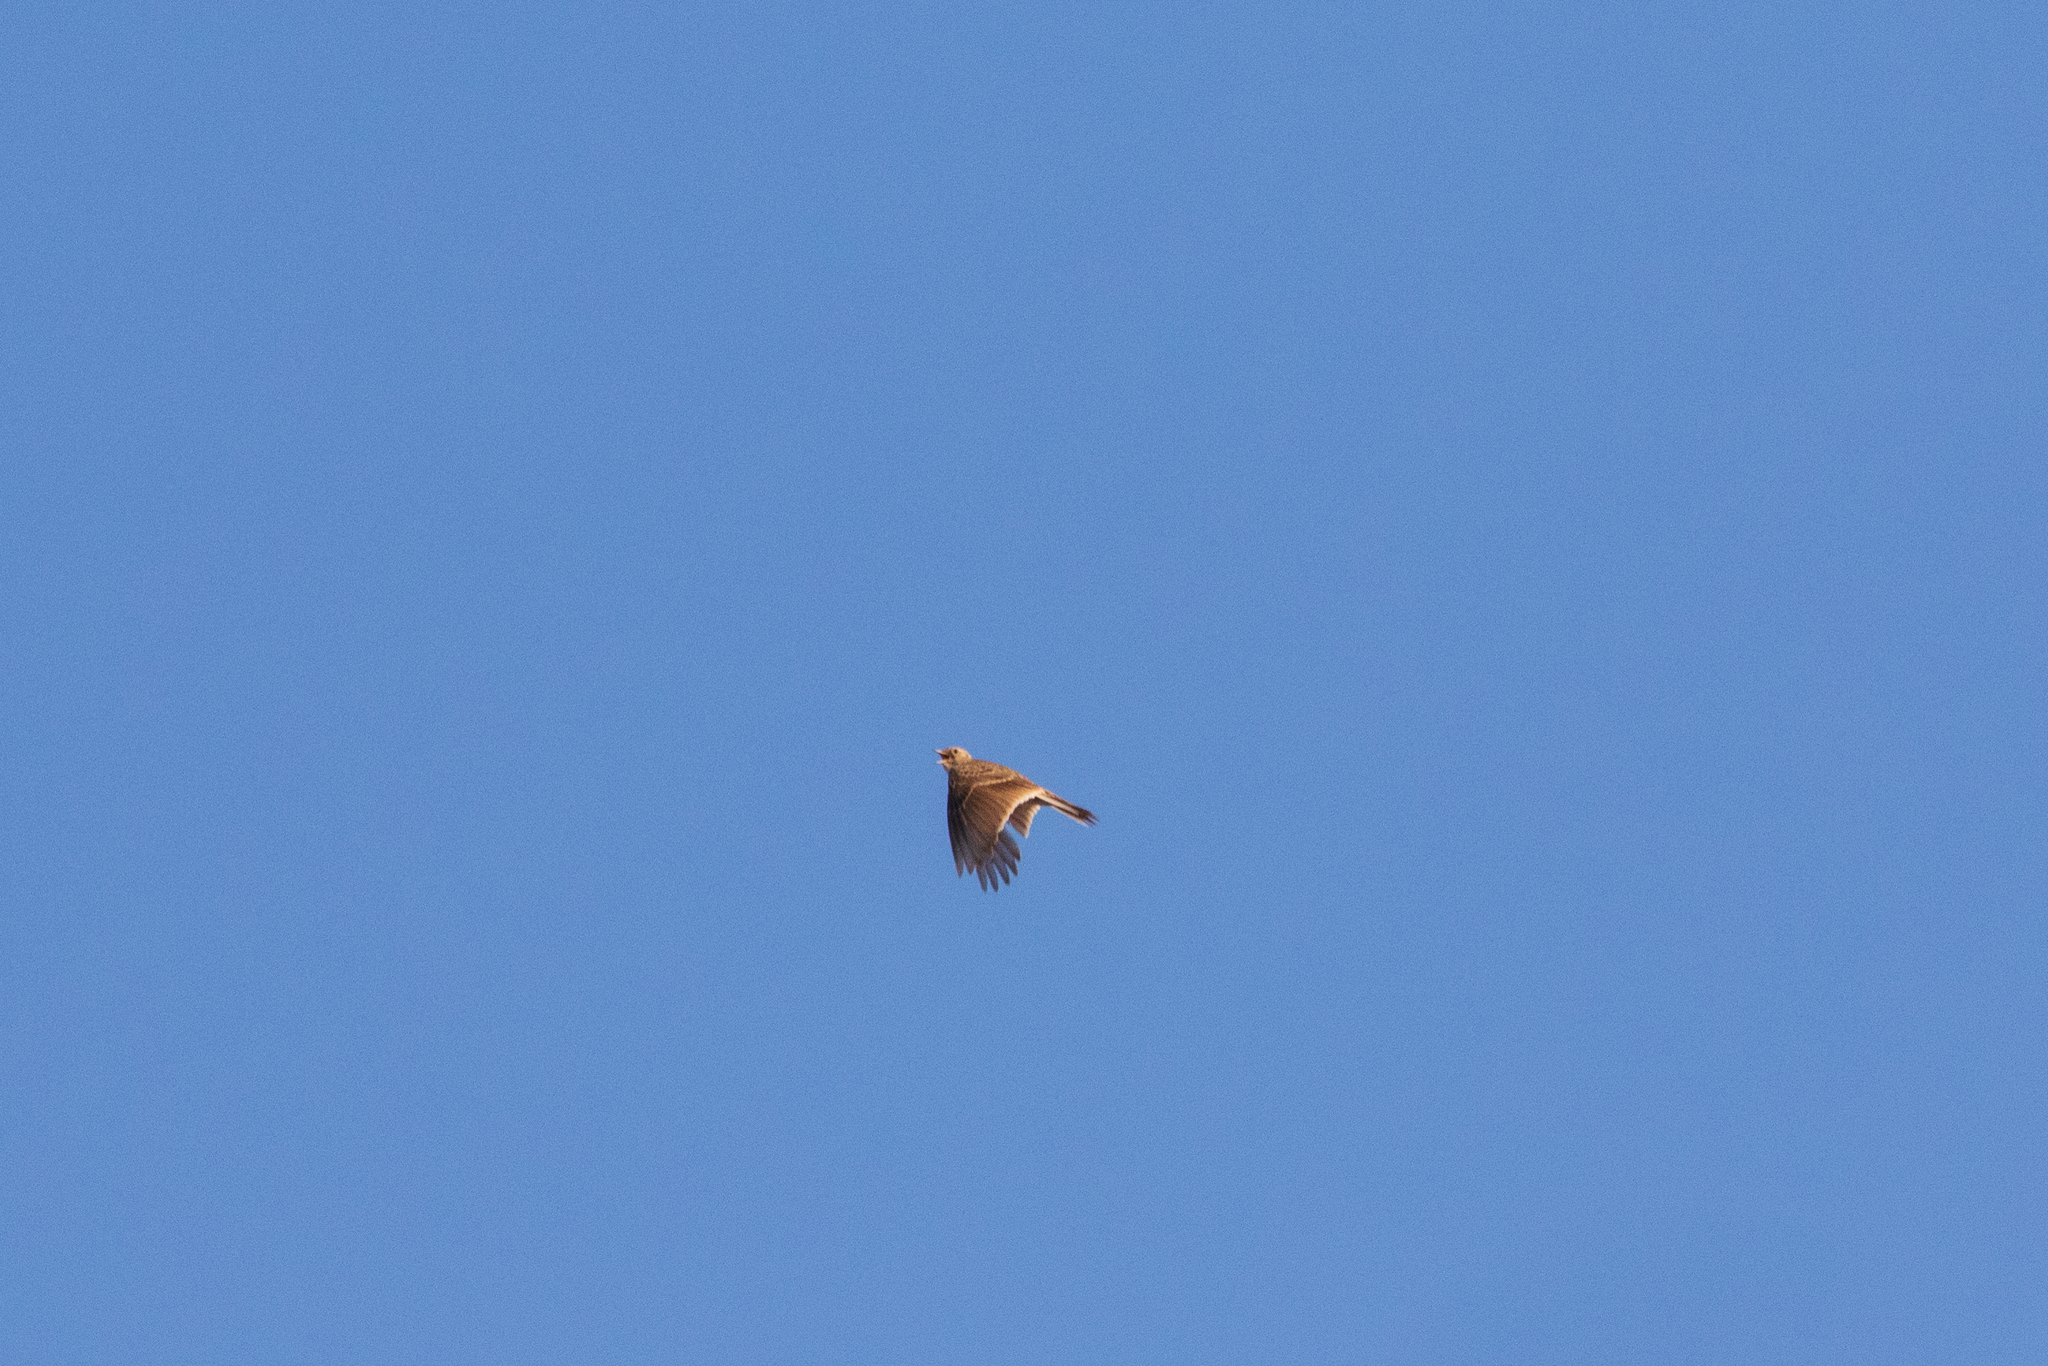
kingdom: Animalia
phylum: Chordata
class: Aves
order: Passeriformes
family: Alaudidae
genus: Alauda
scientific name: Alauda arvensis
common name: Eurasian skylark
